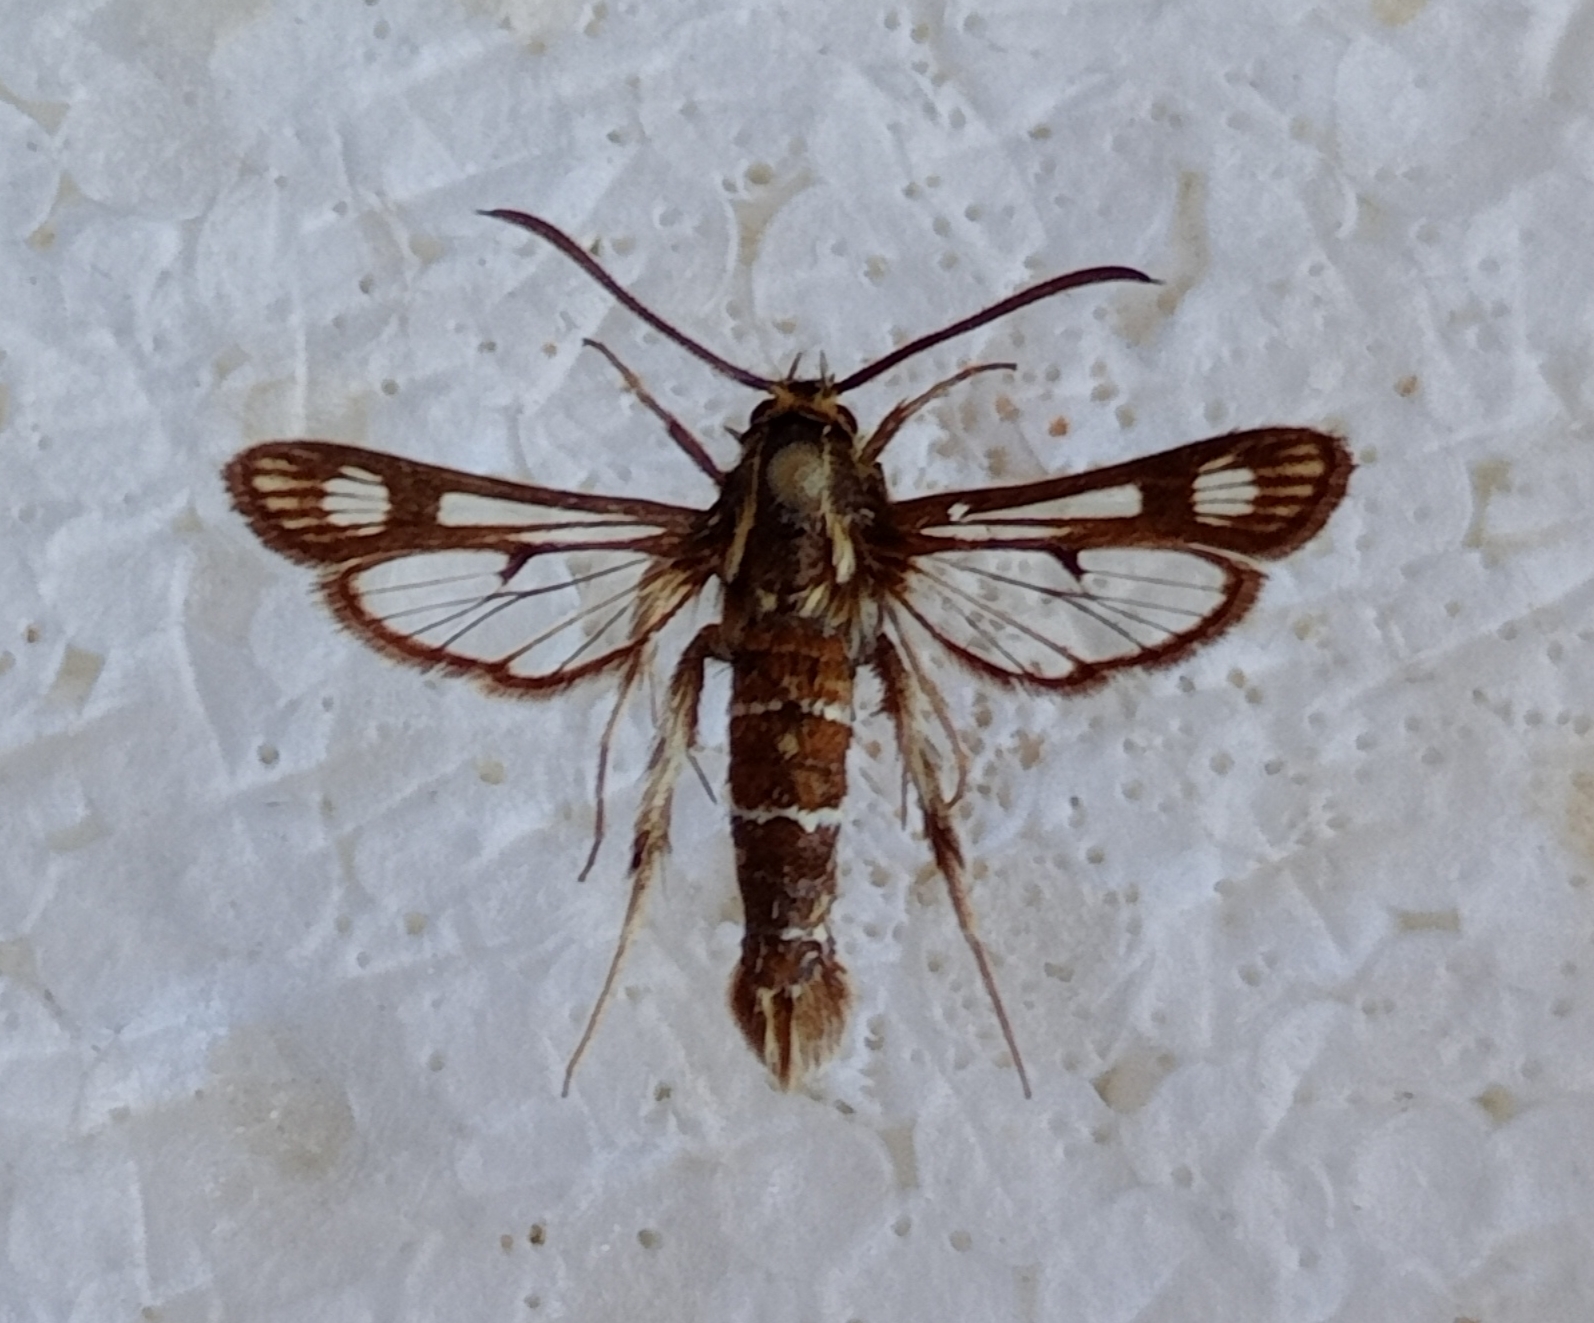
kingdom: Animalia
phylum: Arthropoda
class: Insecta
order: Lepidoptera
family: Sesiidae
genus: Chamaesphecia
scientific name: Chamaesphecia doleriformis
